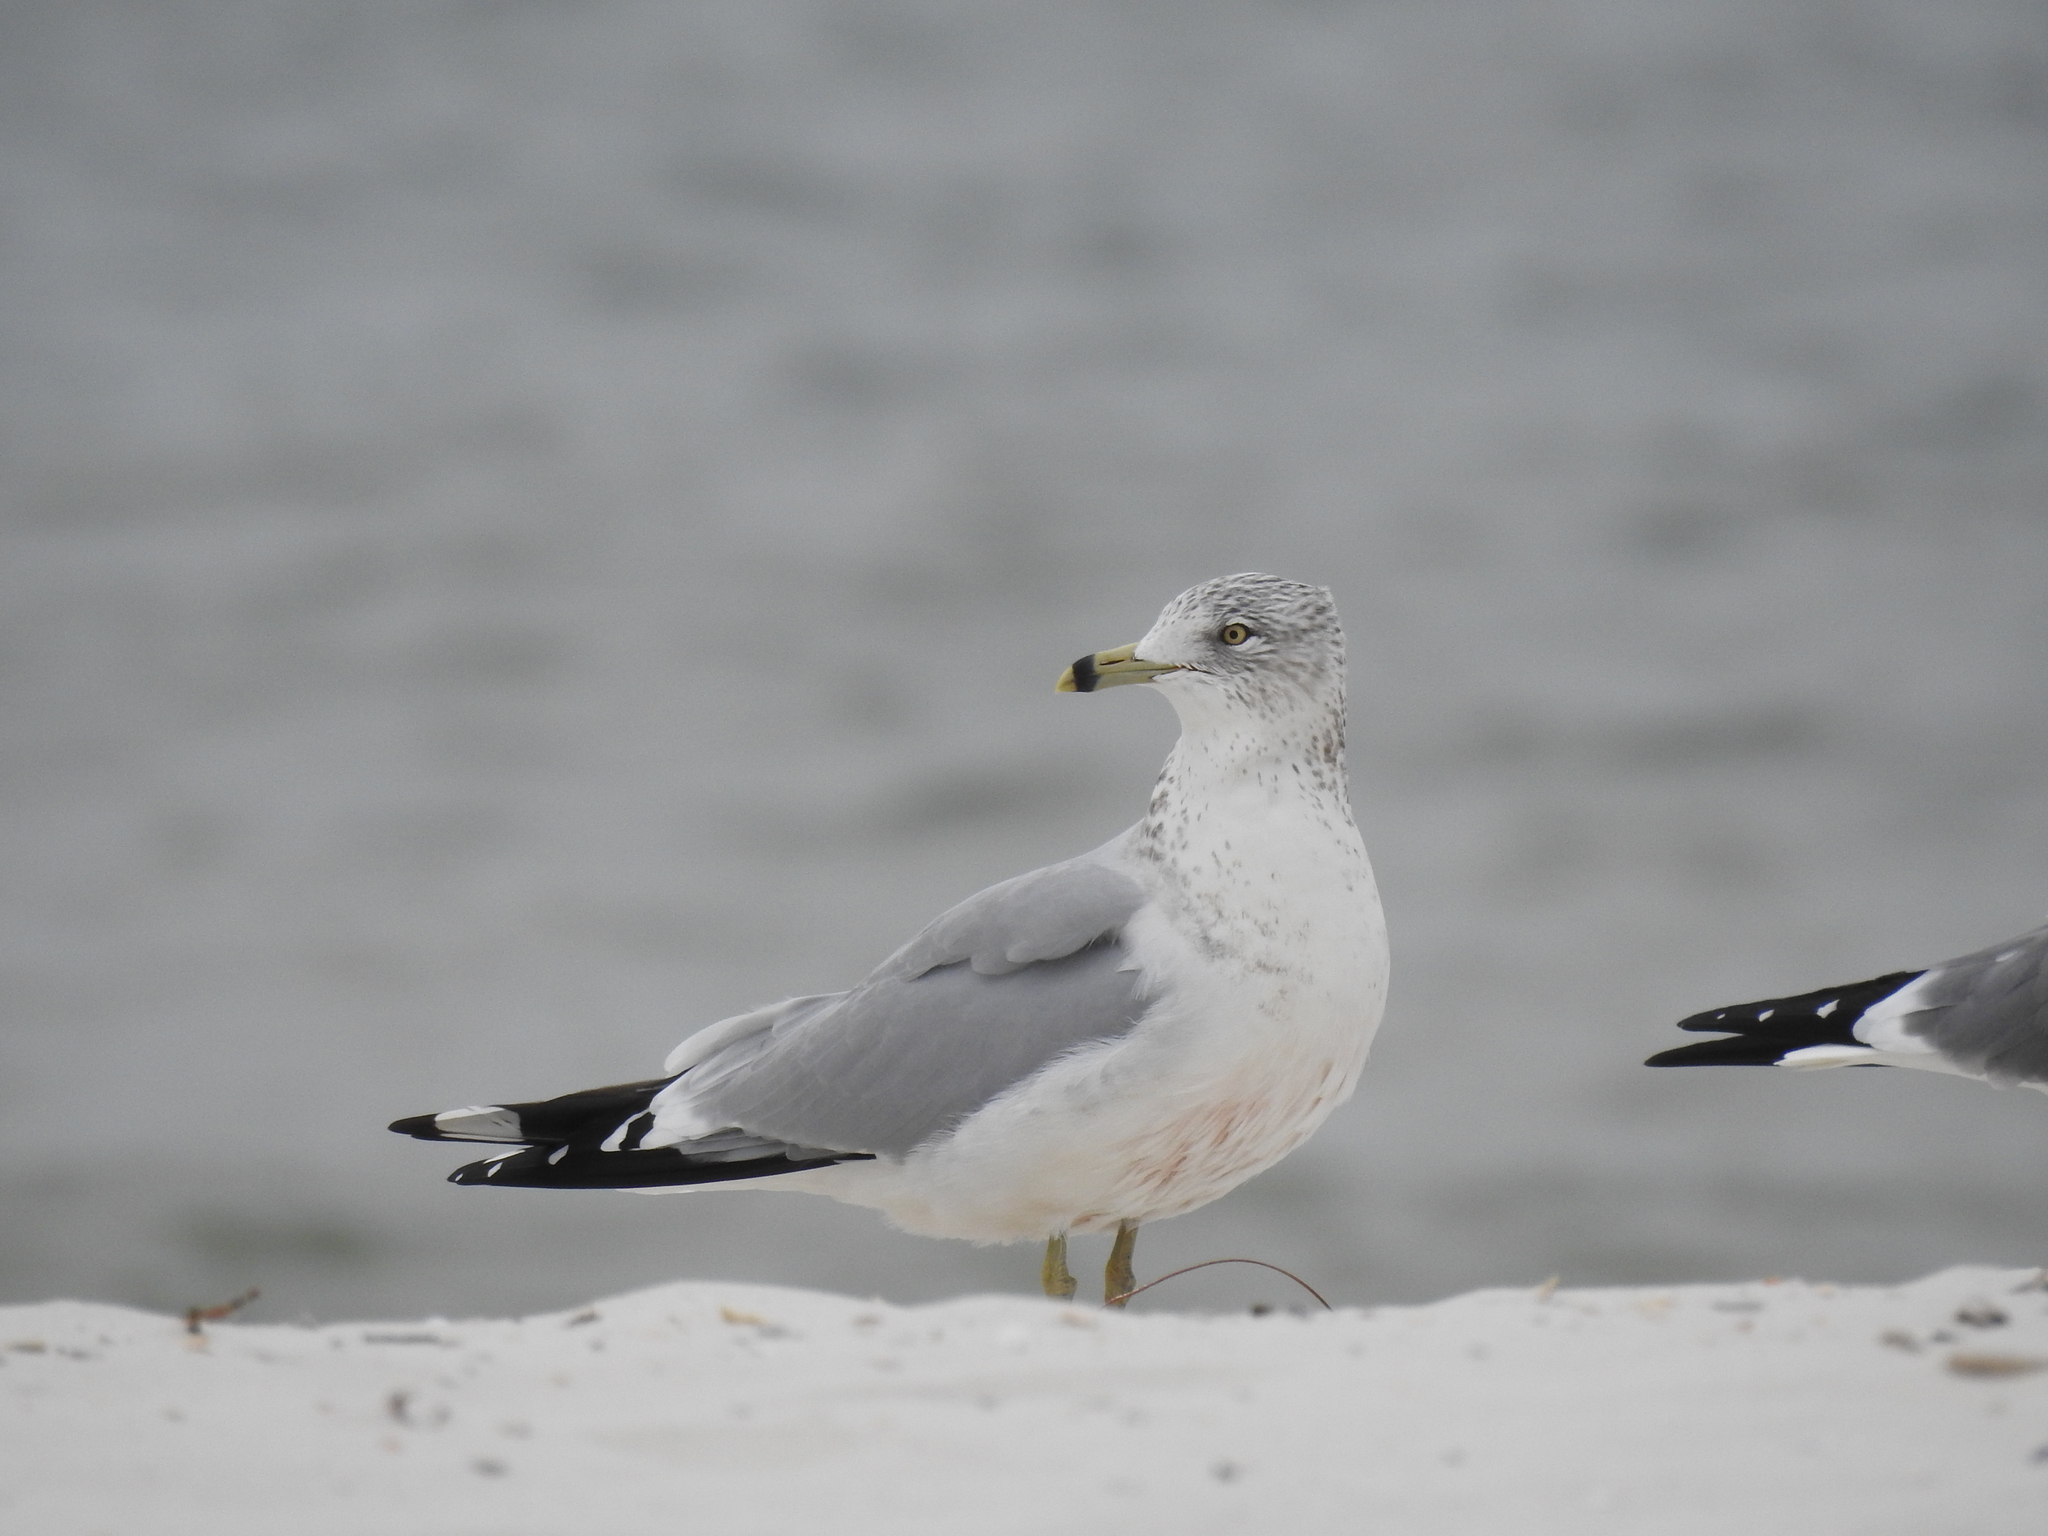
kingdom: Animalia
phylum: Chordata
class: Aves
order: Charadriiformes
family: Laridae
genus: Larus
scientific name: Larus delawarensis
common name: Ring-billed gull
